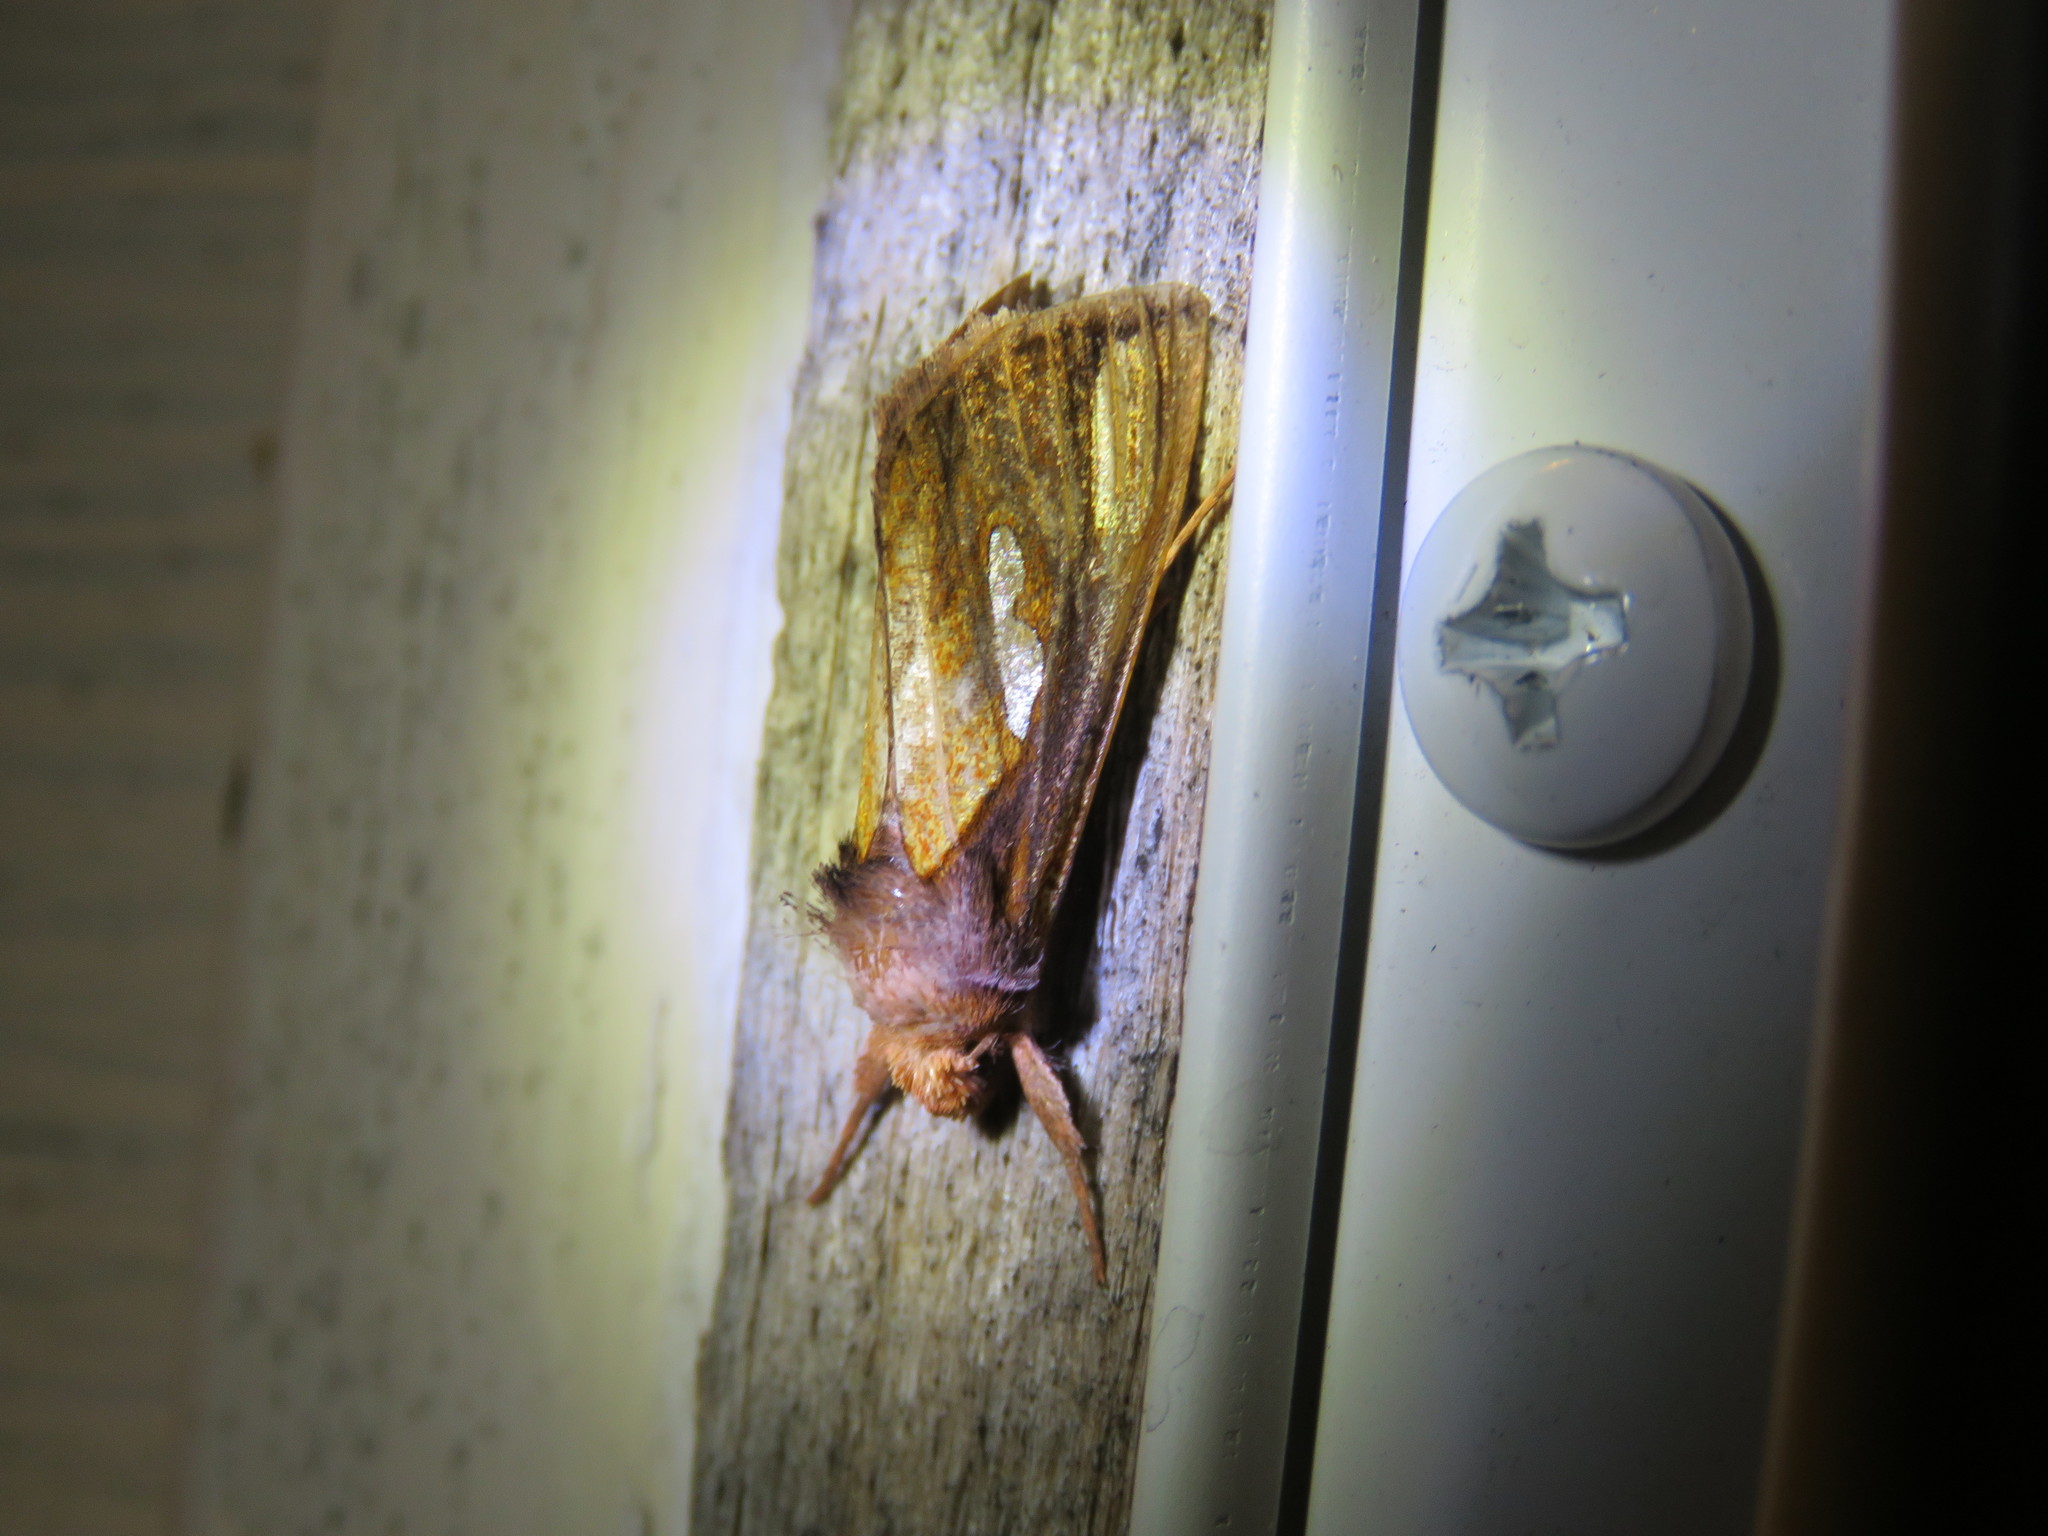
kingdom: Animalia
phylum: Arthropoda
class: Insecta
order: Lepidoptera
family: Noctuidae
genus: Plusia
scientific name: Plusia contexta
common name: Connected looper moth
